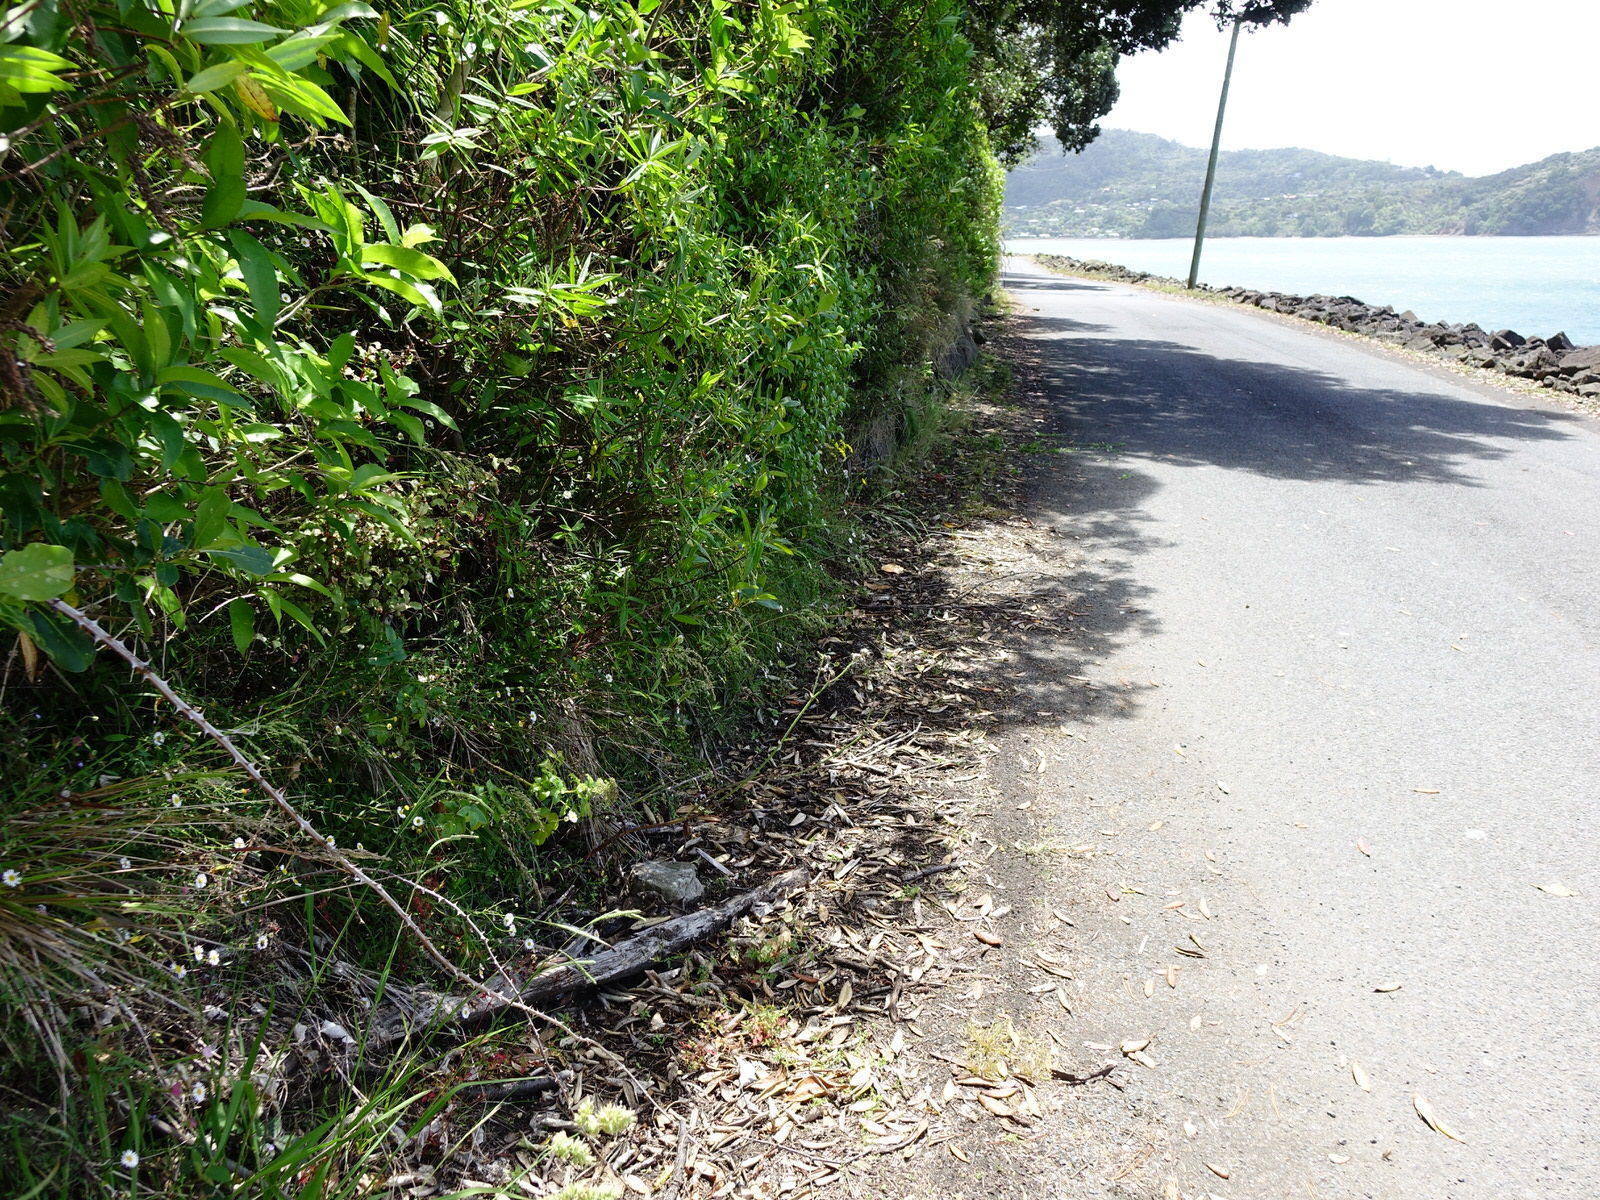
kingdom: Plantae
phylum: Tracheophyta
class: Magnoliopsida
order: Apiales
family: Apiaceae
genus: Scandia
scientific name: Scandia rosifolia
